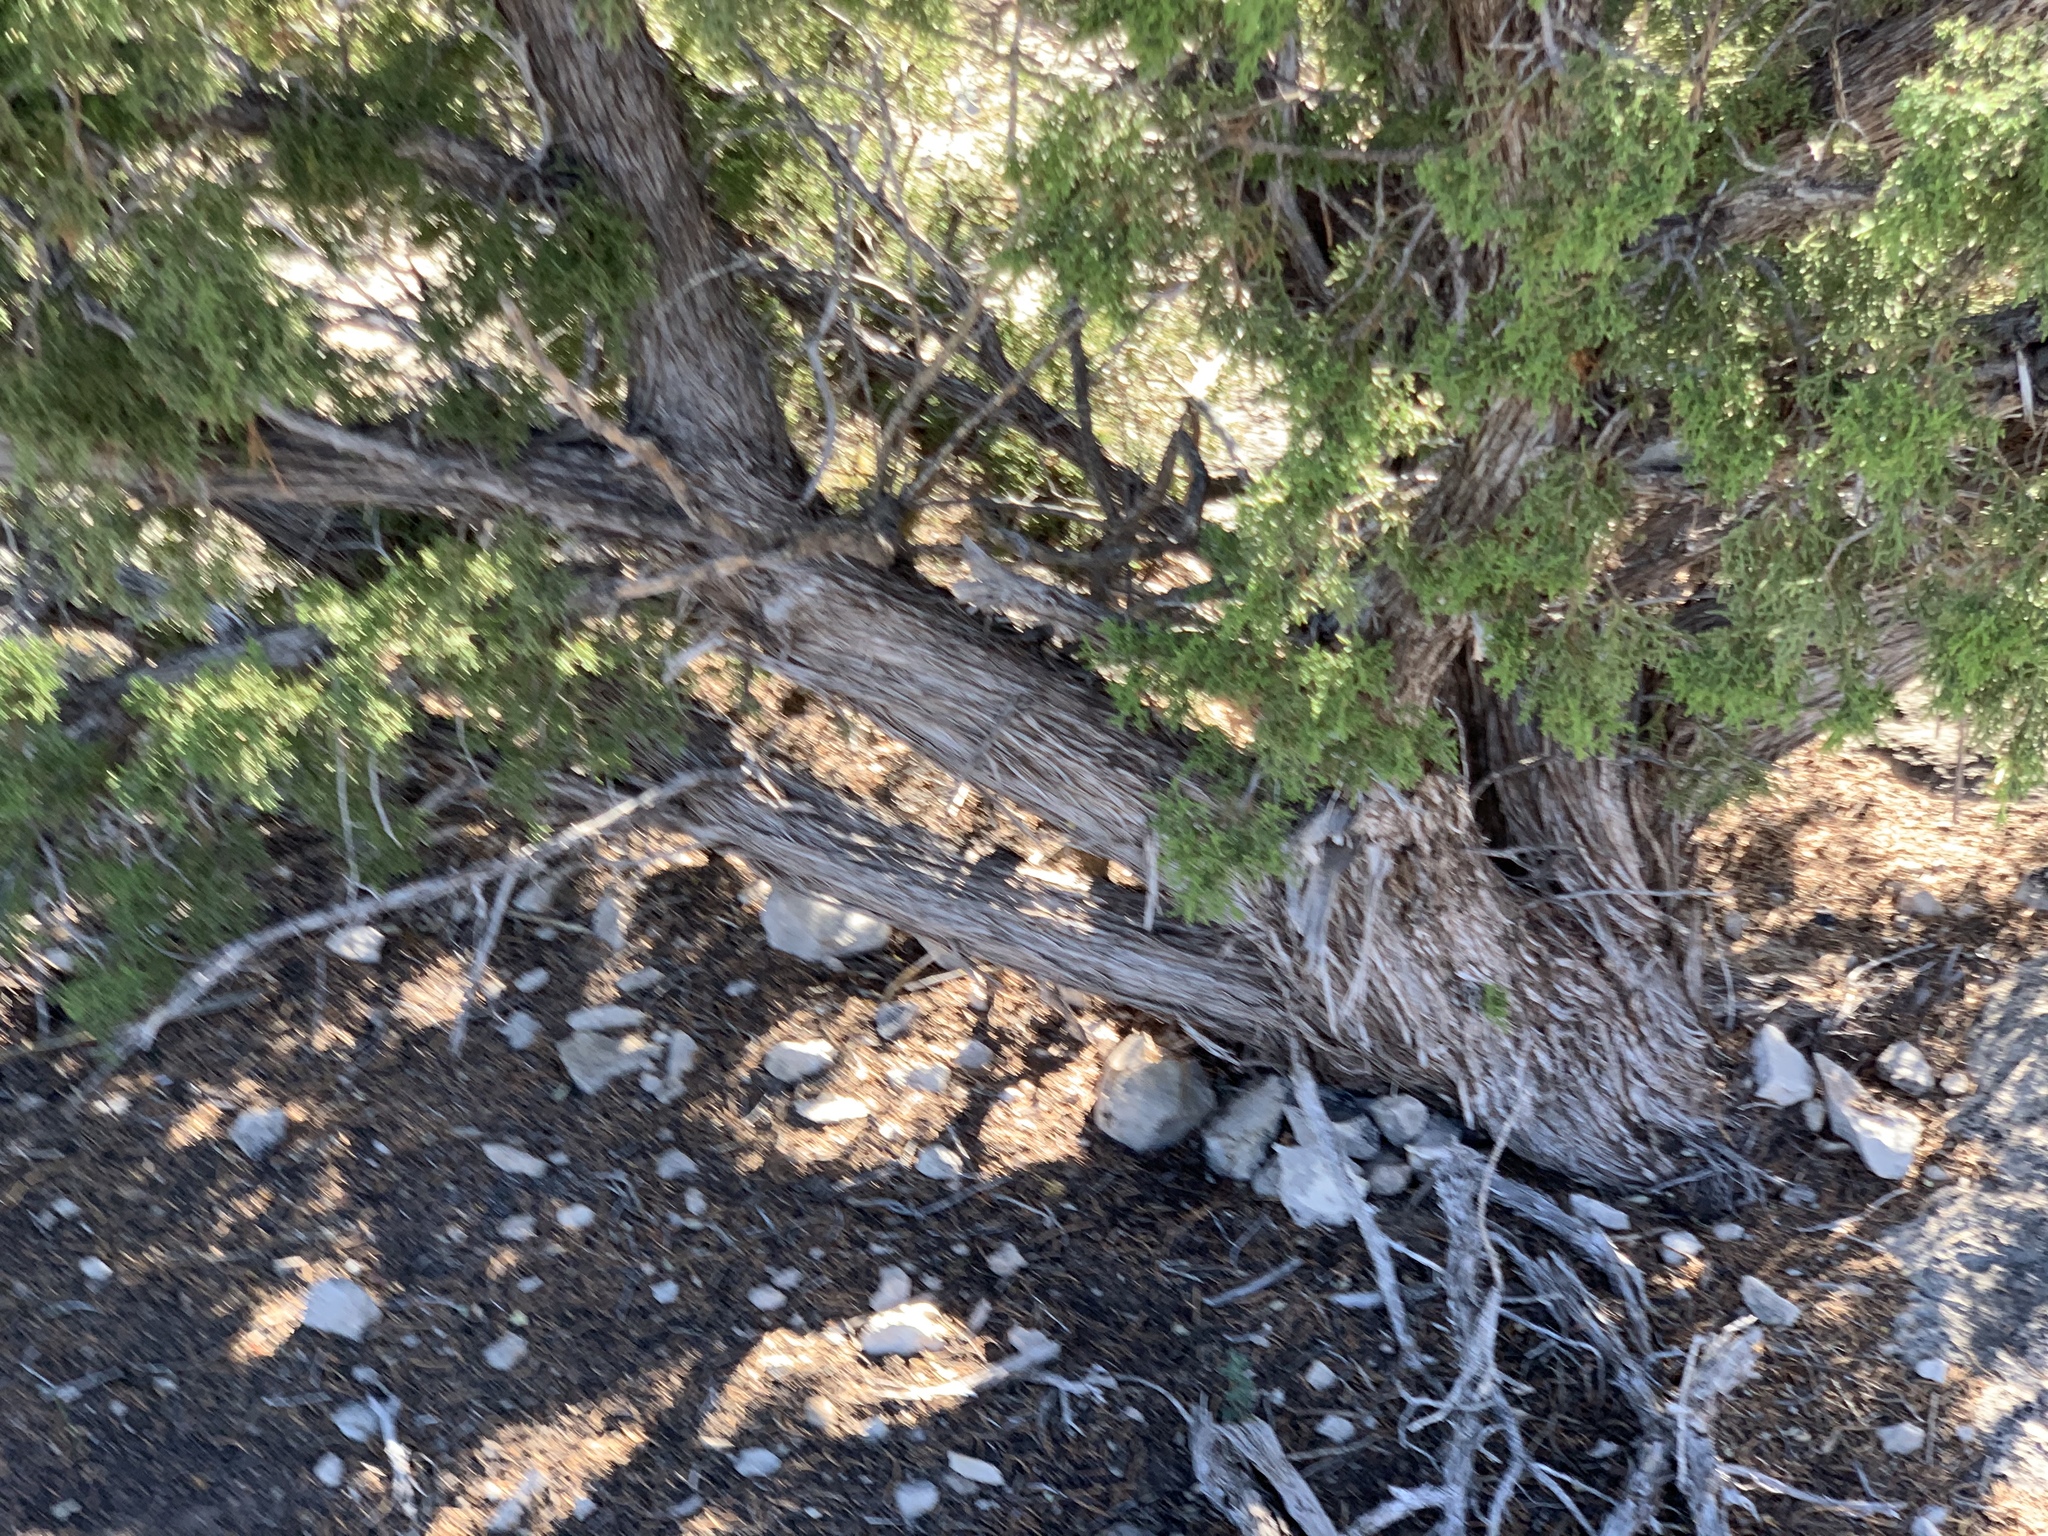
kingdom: Plantae
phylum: Tracheophyta
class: Pinopsida
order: Pinales
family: Cupressaceae
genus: Juniperus
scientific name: Juniperus monosperma
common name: One-seed juniper
